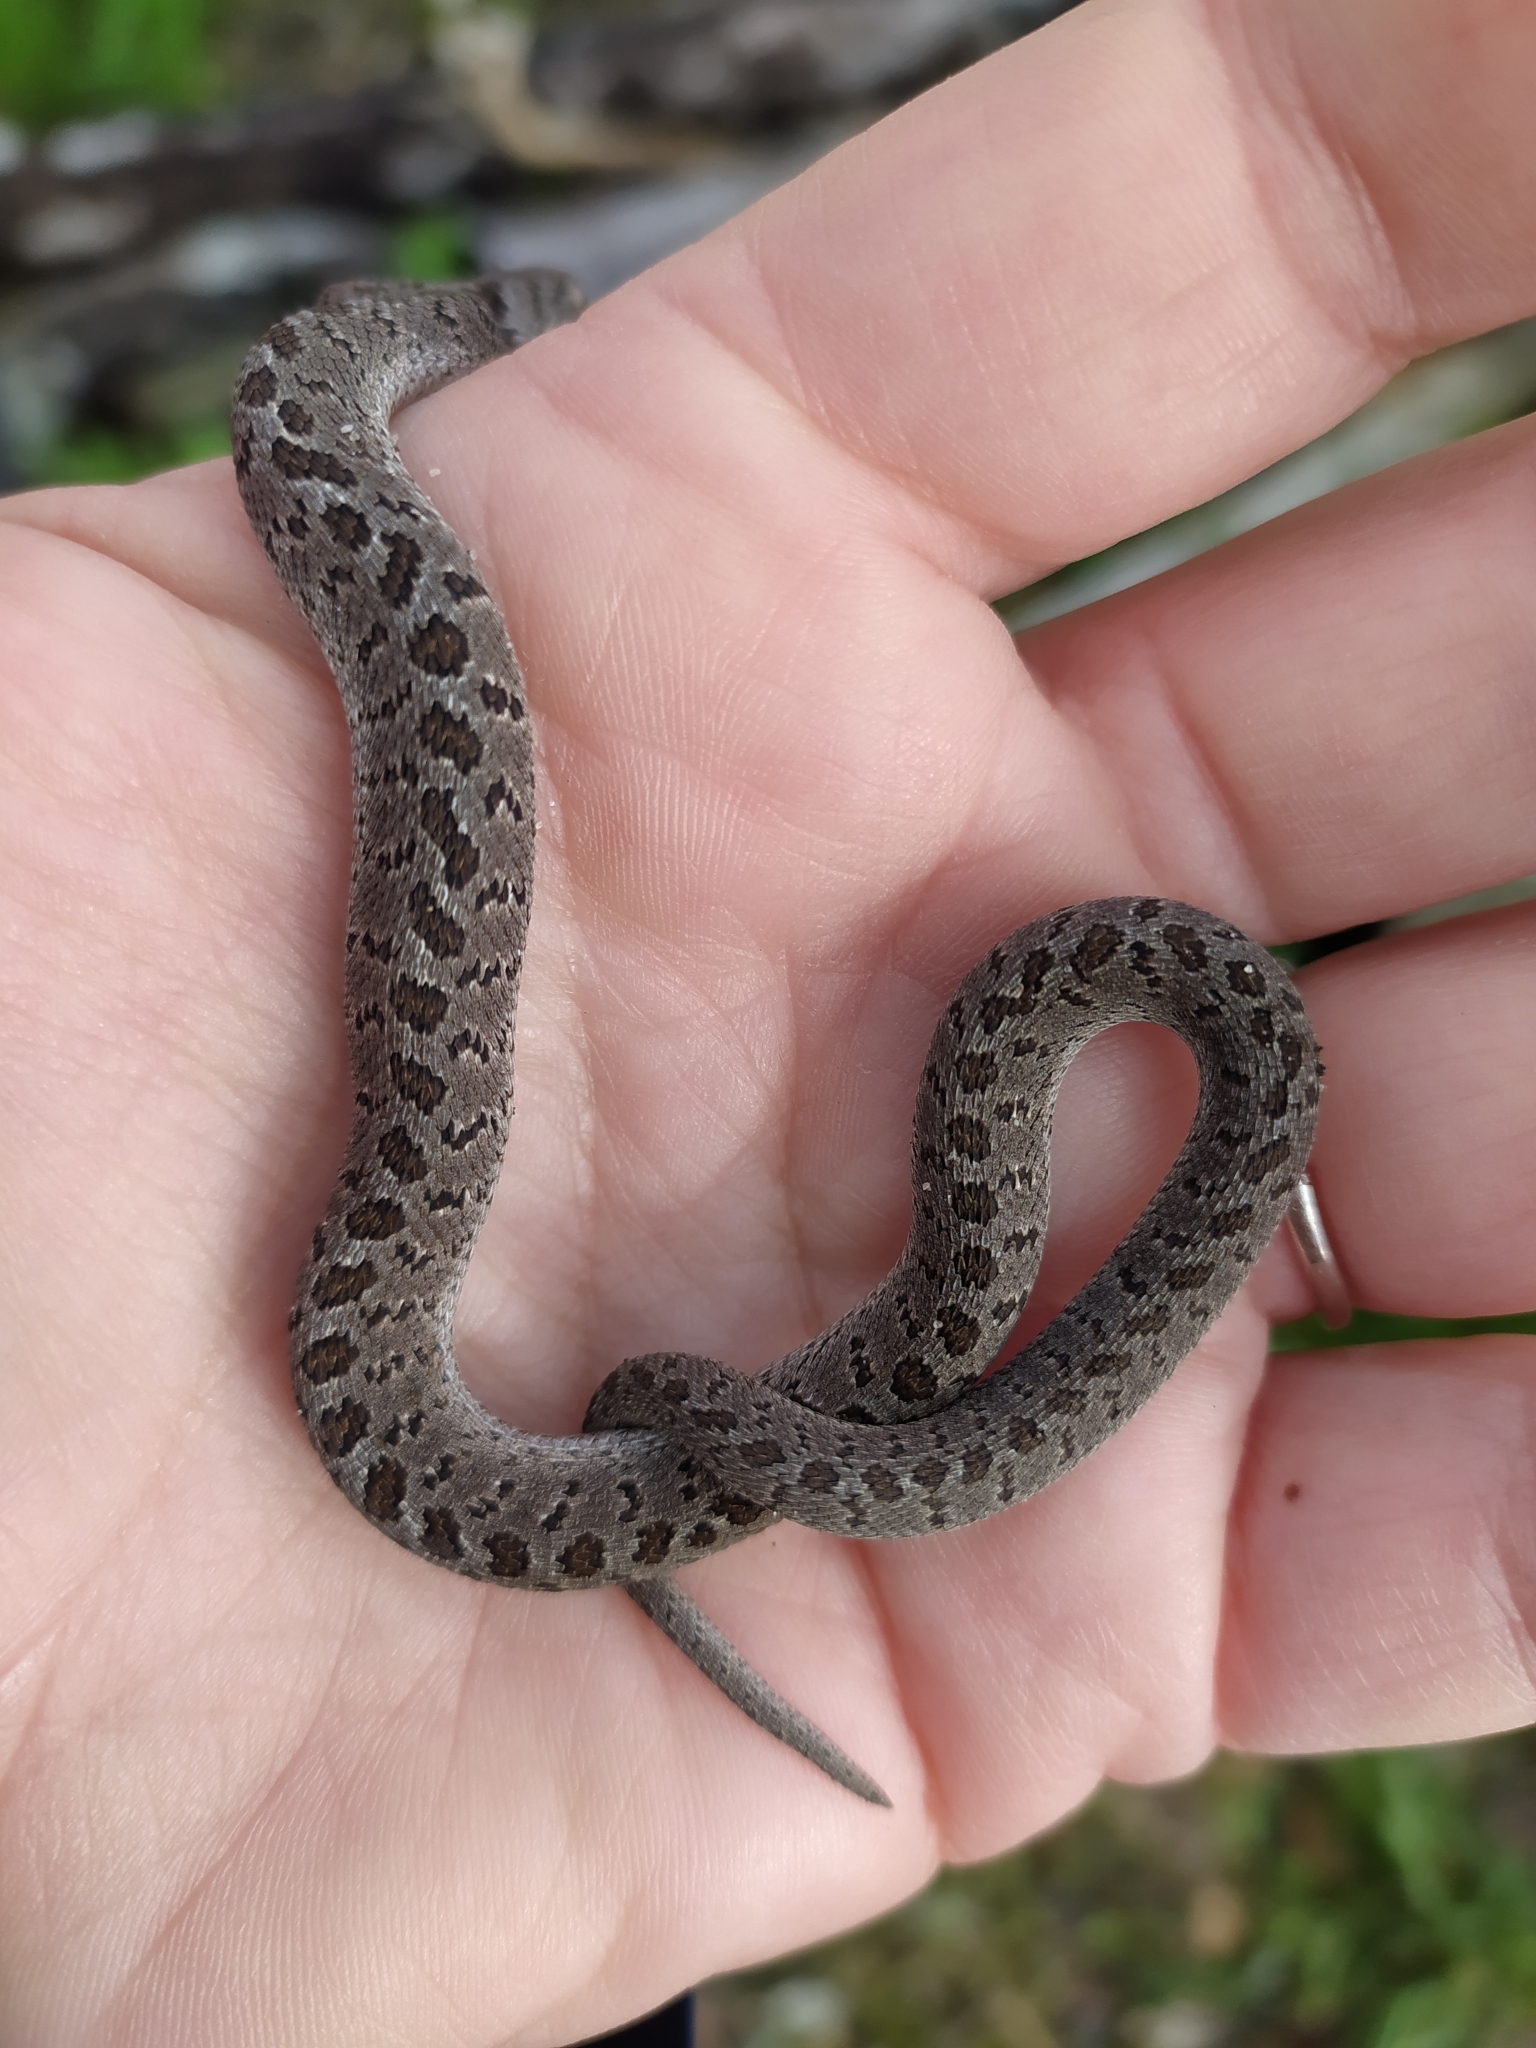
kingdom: Animalia
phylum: Chordata
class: Squamata
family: Colubridae
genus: Dasypeltis
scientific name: Dasypeltis scabra
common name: Common egg eater
